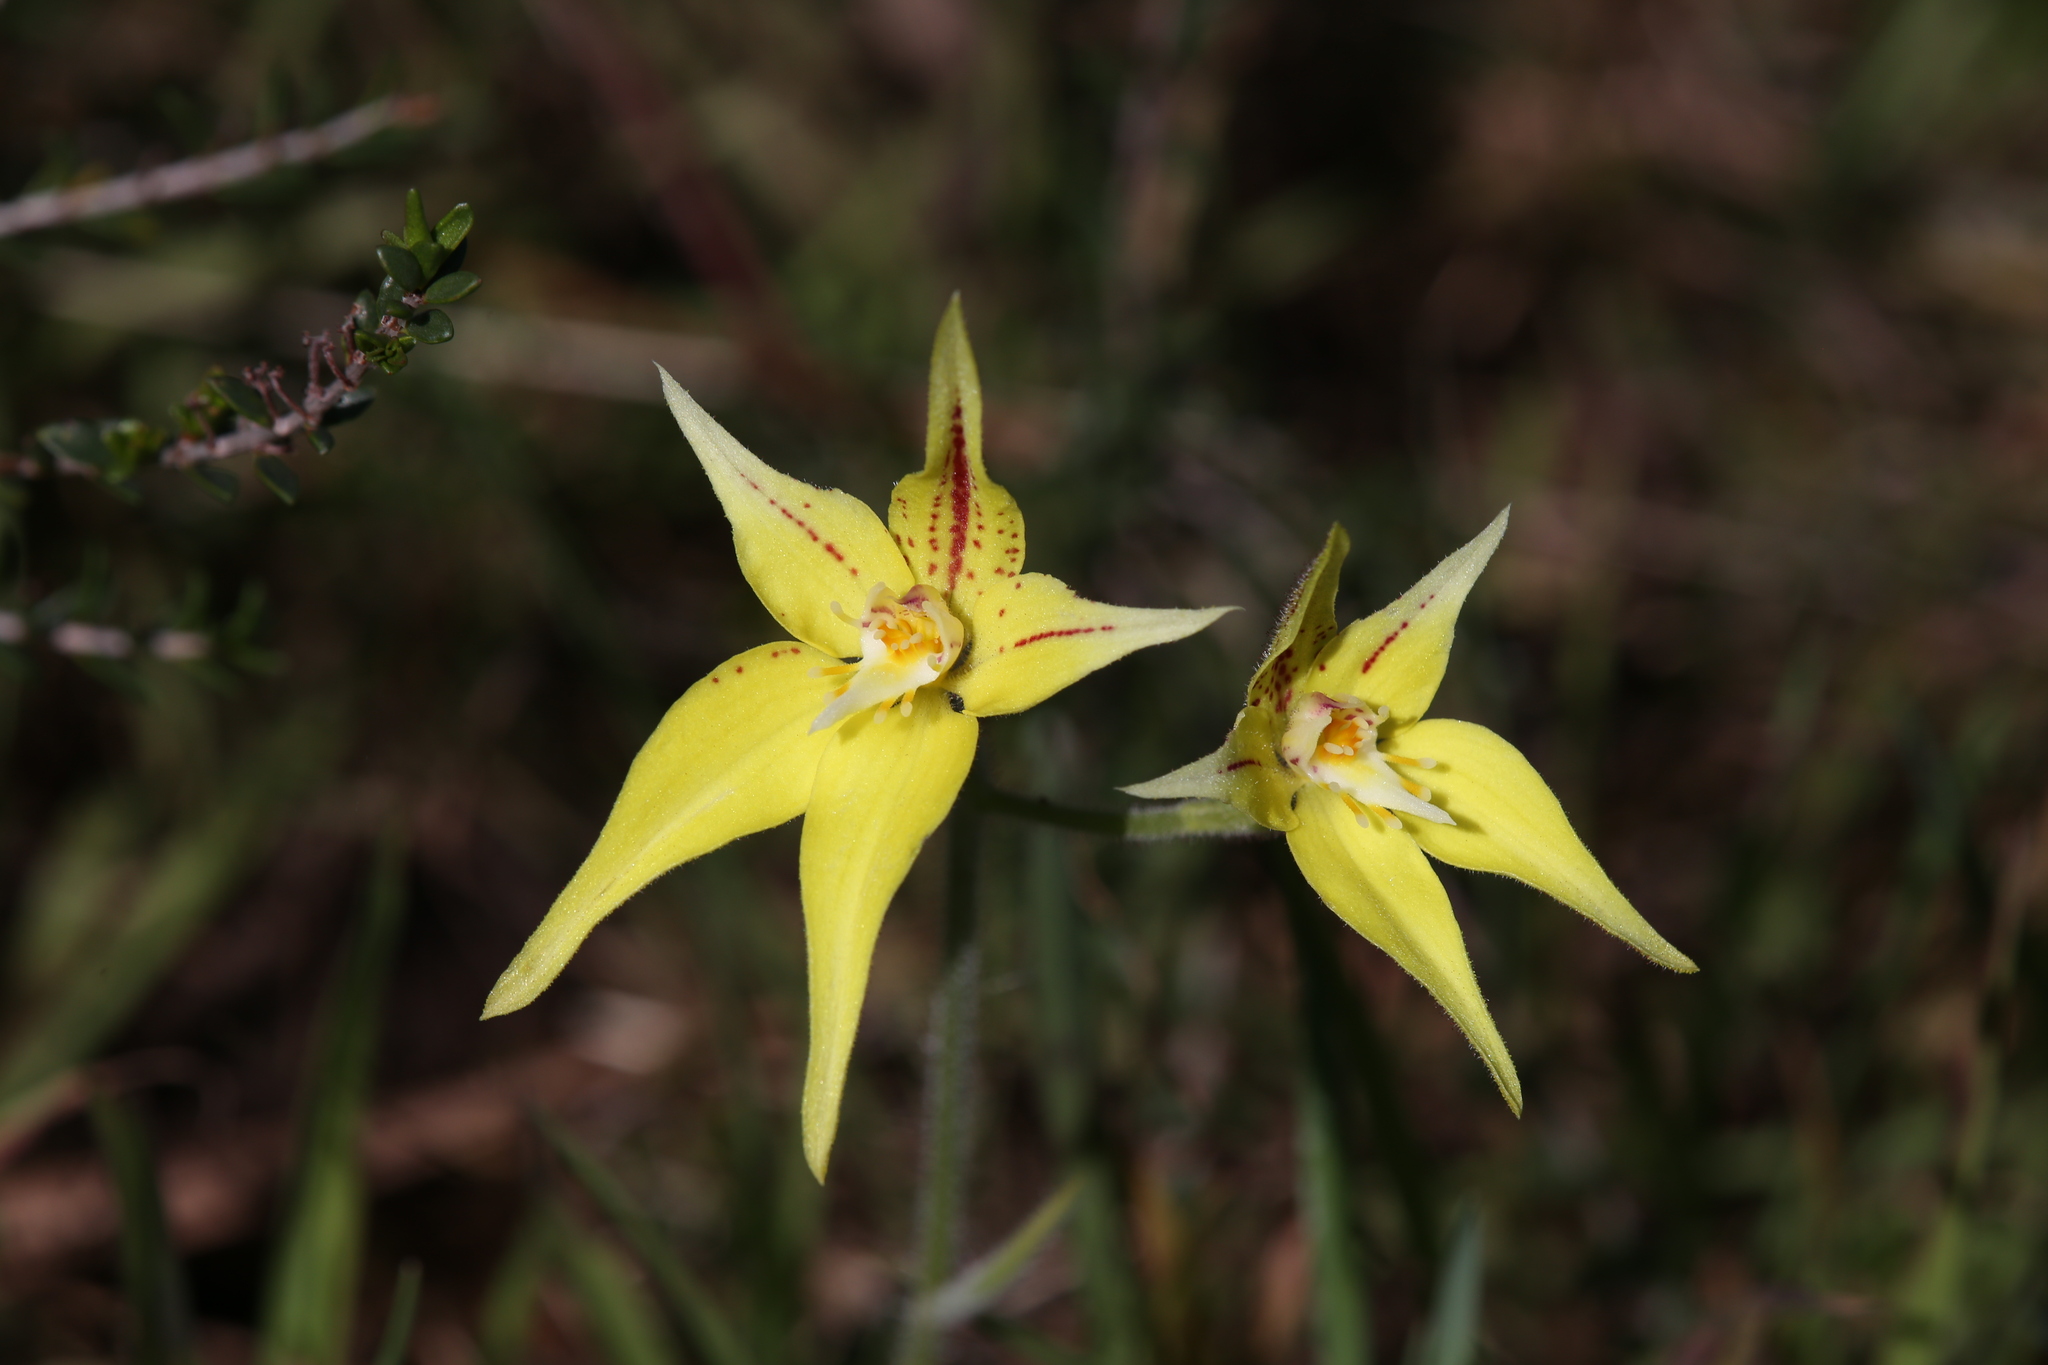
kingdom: Plantae
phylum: Tracheophyta
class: Liliopsida
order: Asparagales
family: Orchidaceae
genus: Caladenia
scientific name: Caladenia flava
